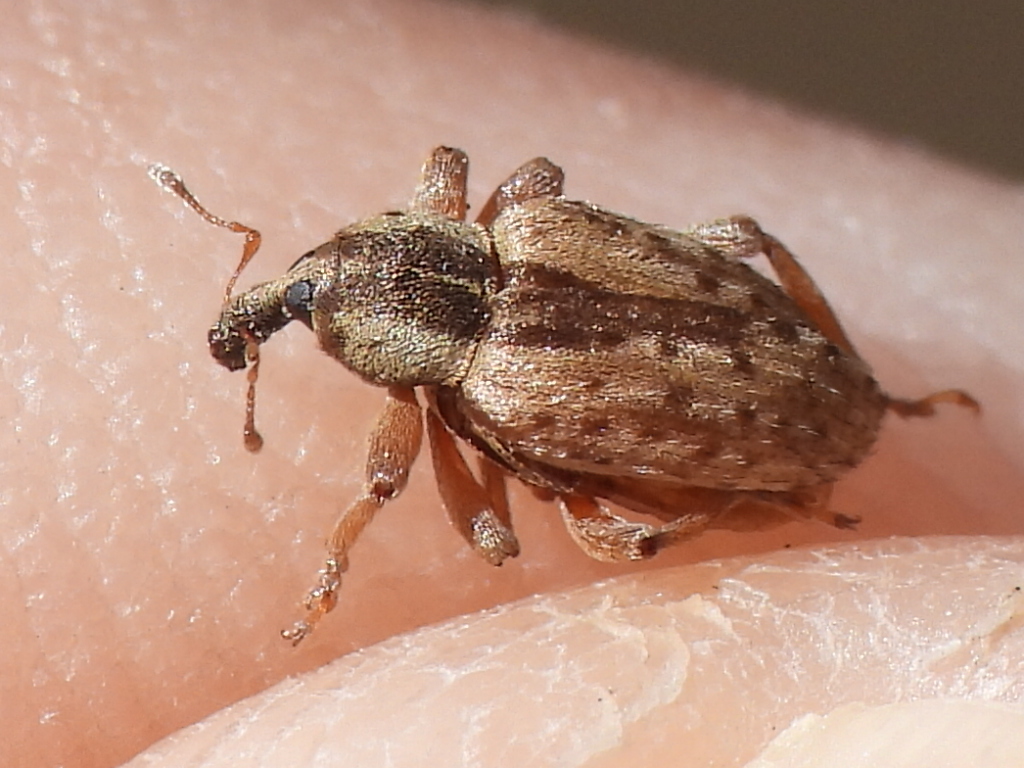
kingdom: Animalia
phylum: Arthropoda
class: Insecta
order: Coleoptera
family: Curculionidae
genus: Hypera
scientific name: Hypera postica
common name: Weevil
